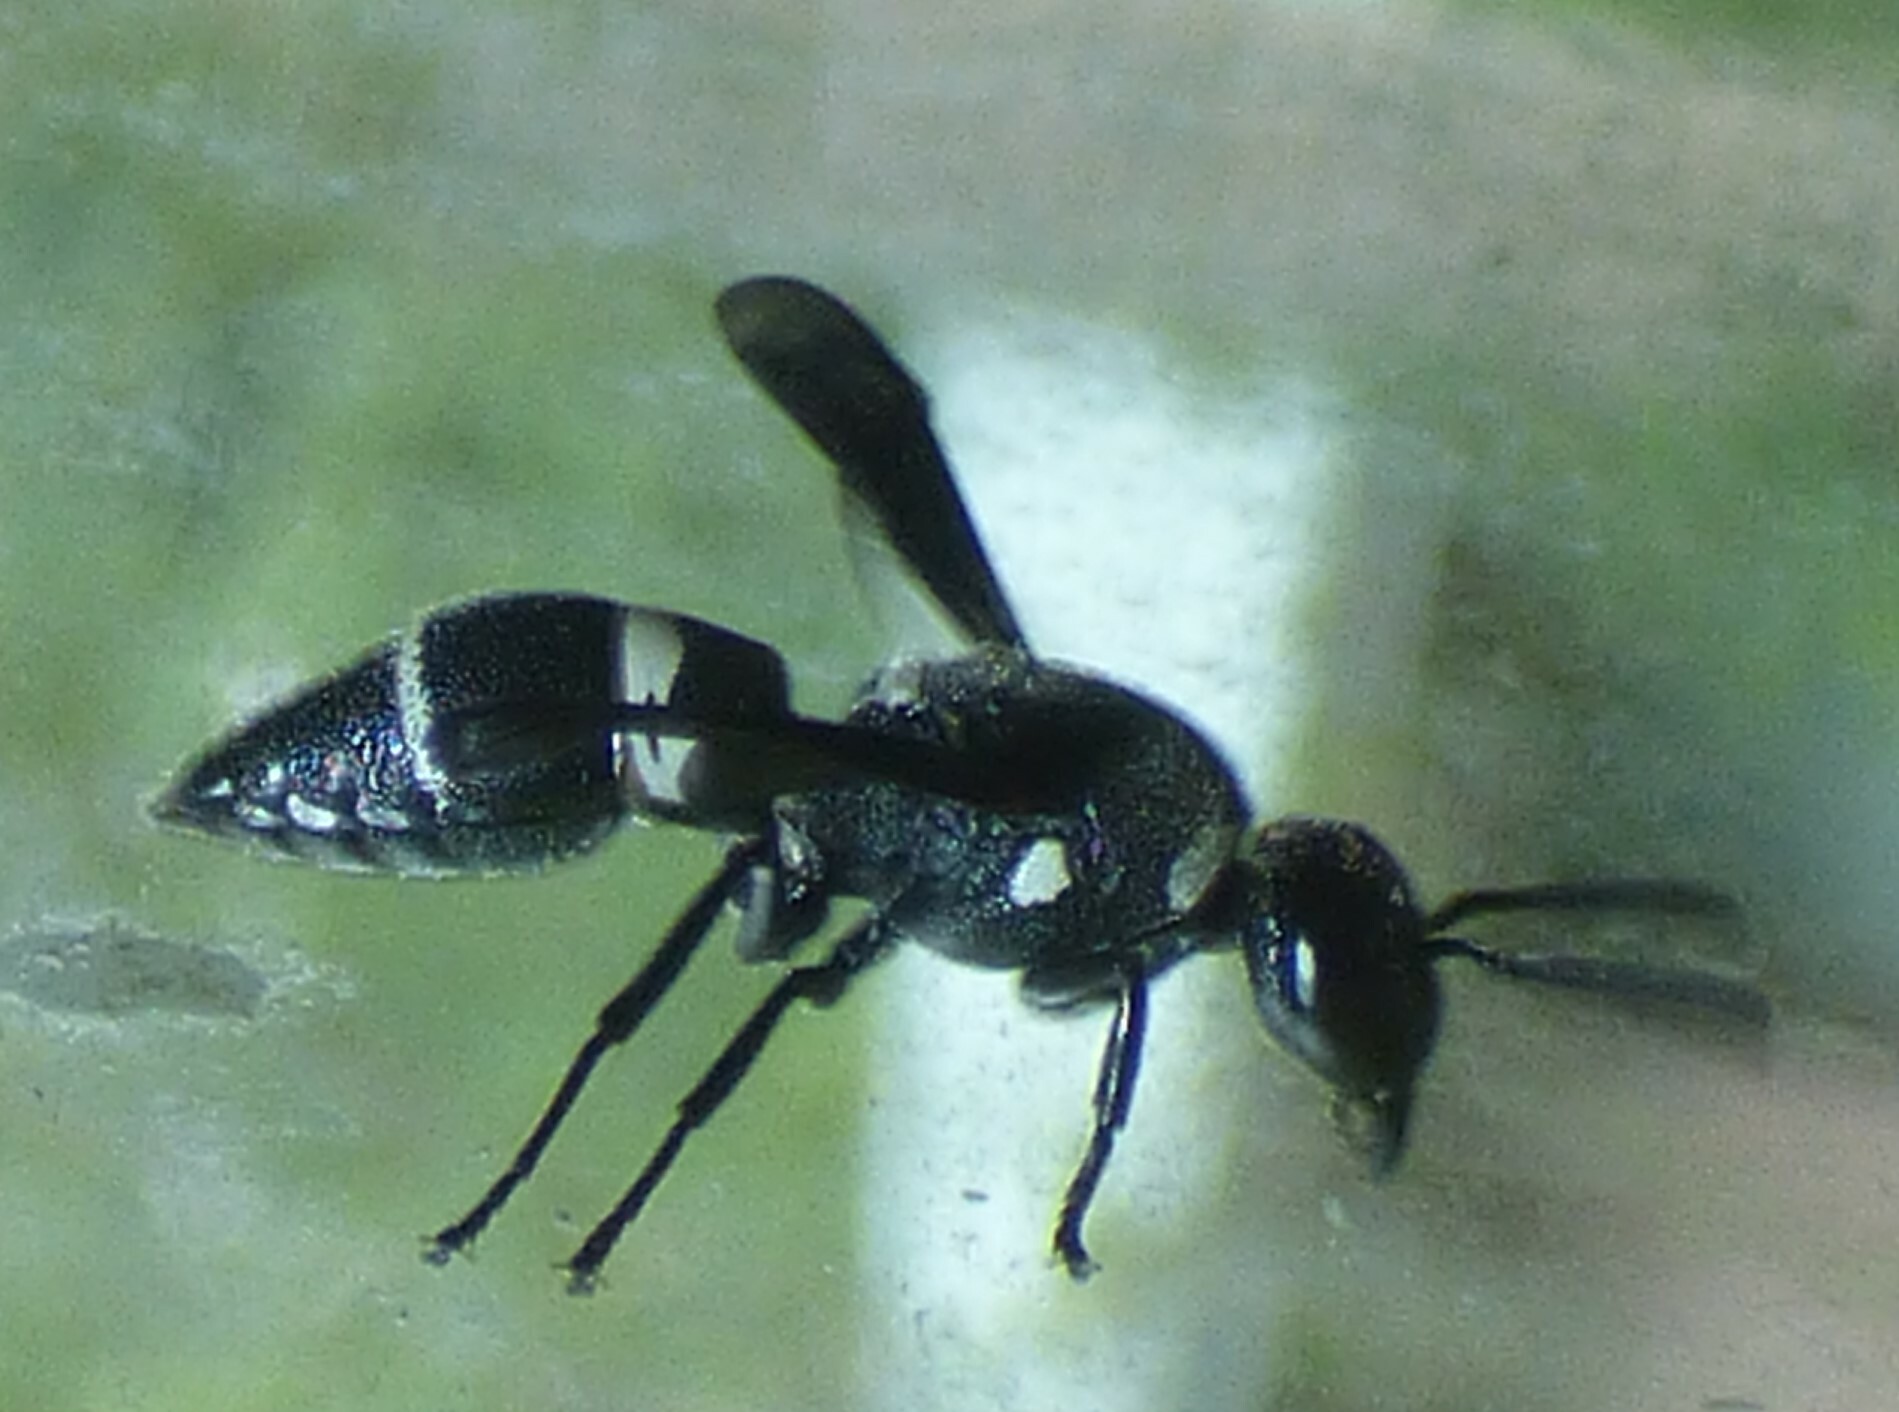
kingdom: Animalia
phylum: Arthropoda
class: Insecta
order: Hymenoptera
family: Eumenidae
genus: Euodynerus
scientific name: Euodynerus megaera
